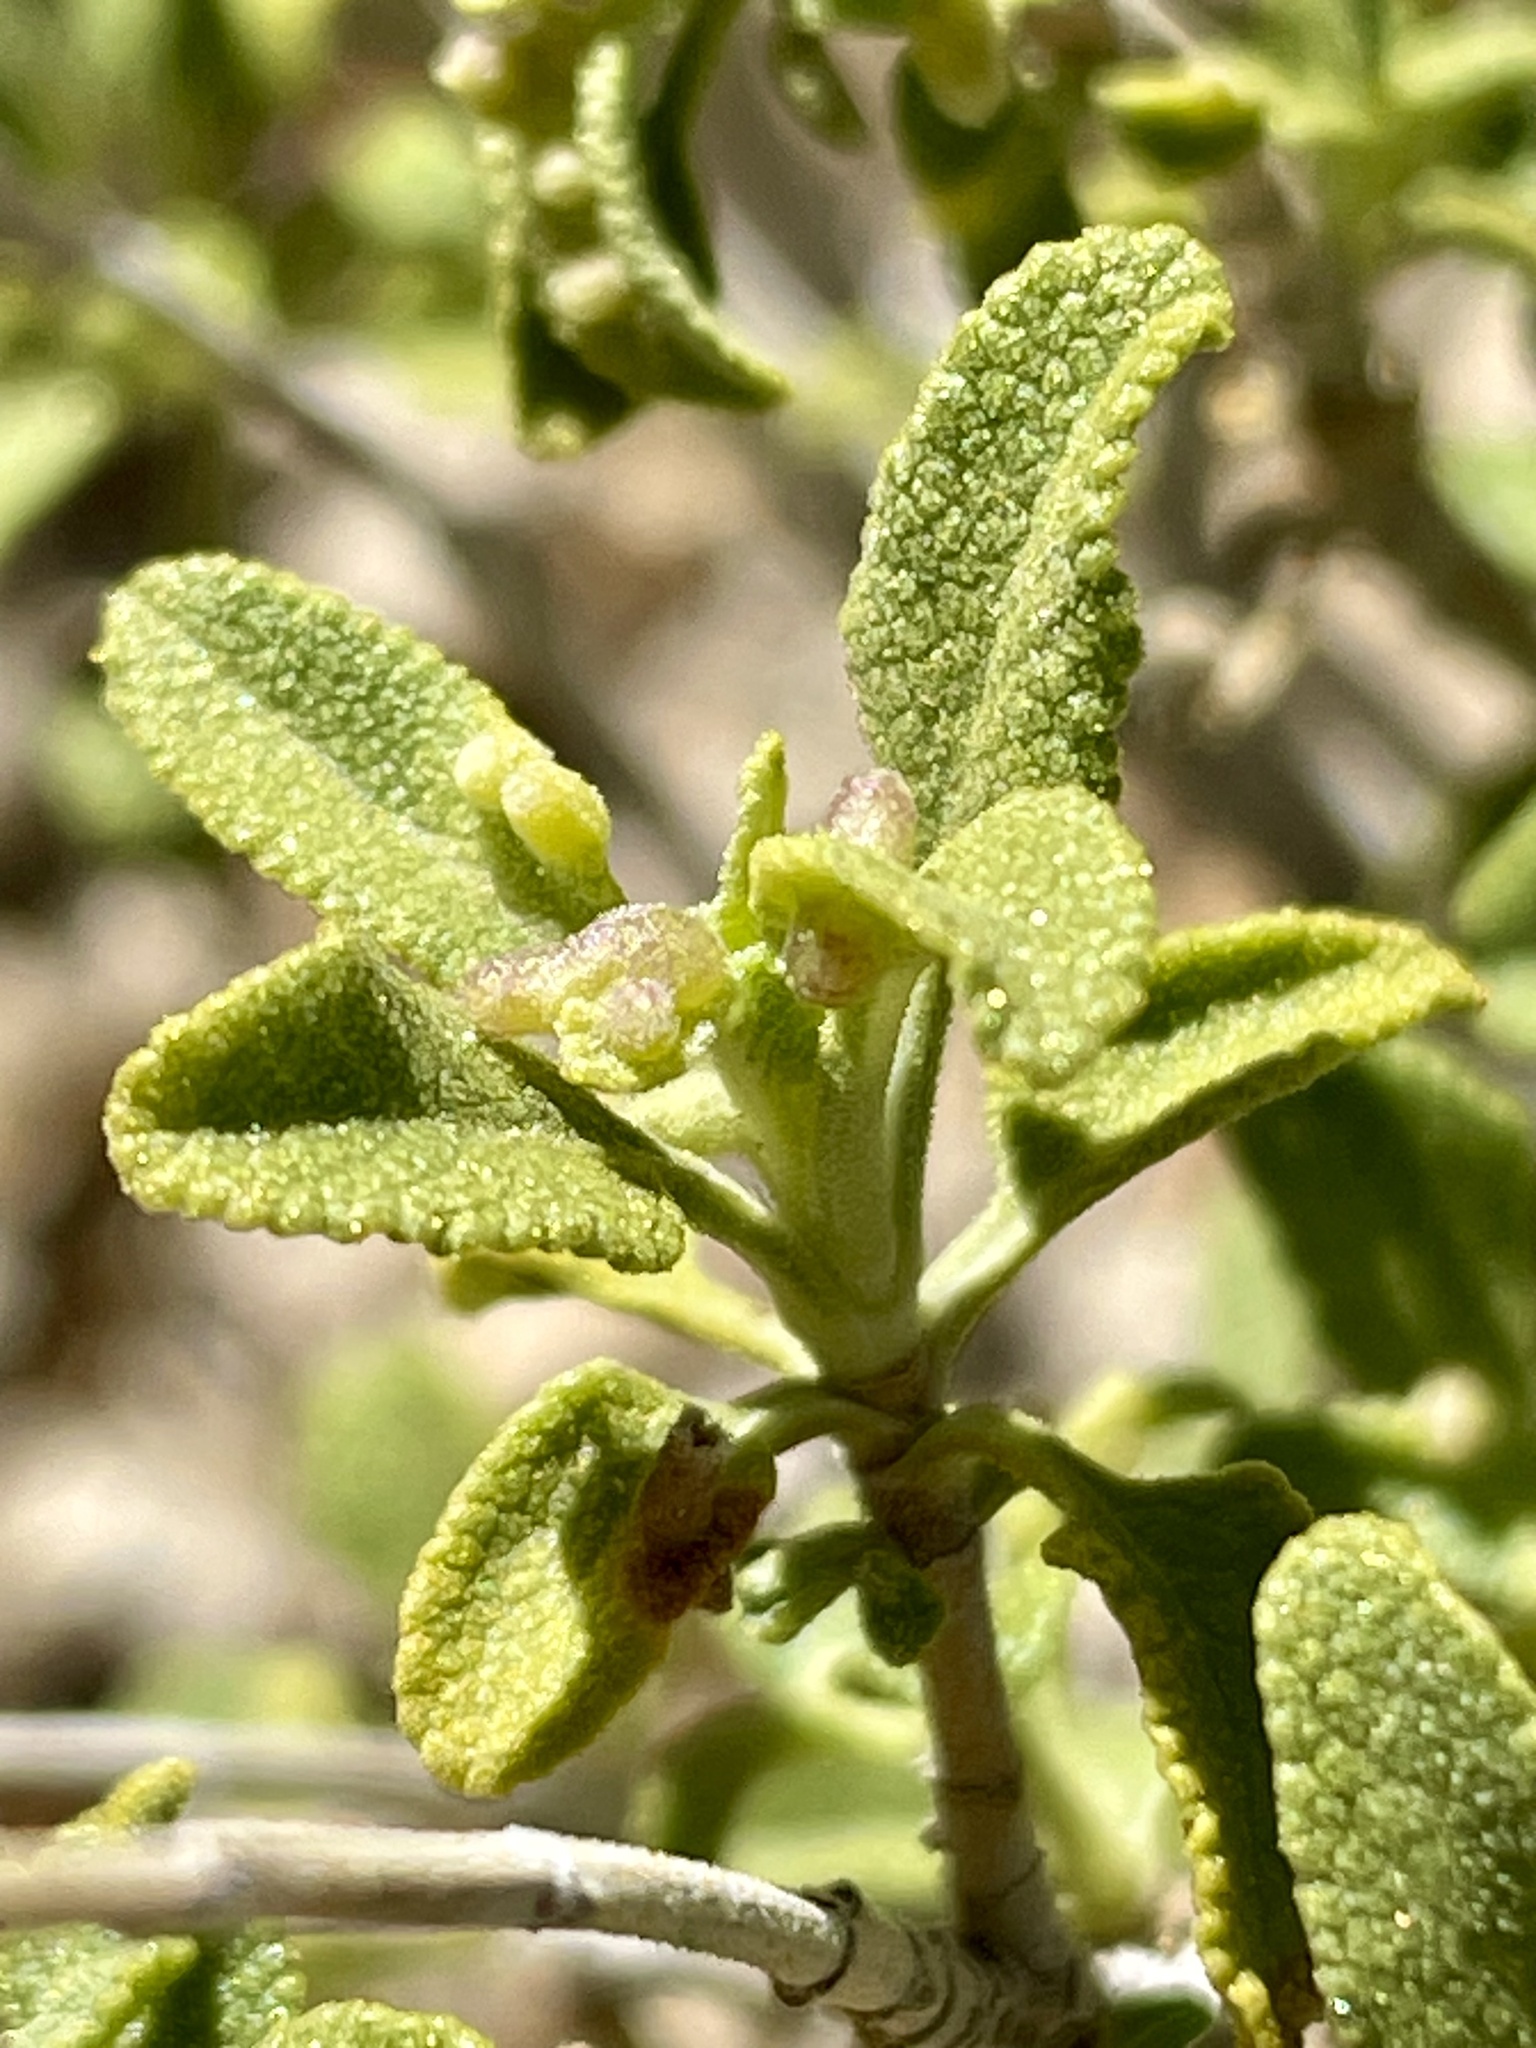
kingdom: Plantae
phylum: Tracheophyta
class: Magnoliopsida
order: Lamiales
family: Lamiaceae
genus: Salvia
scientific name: Salvia mohavensis
